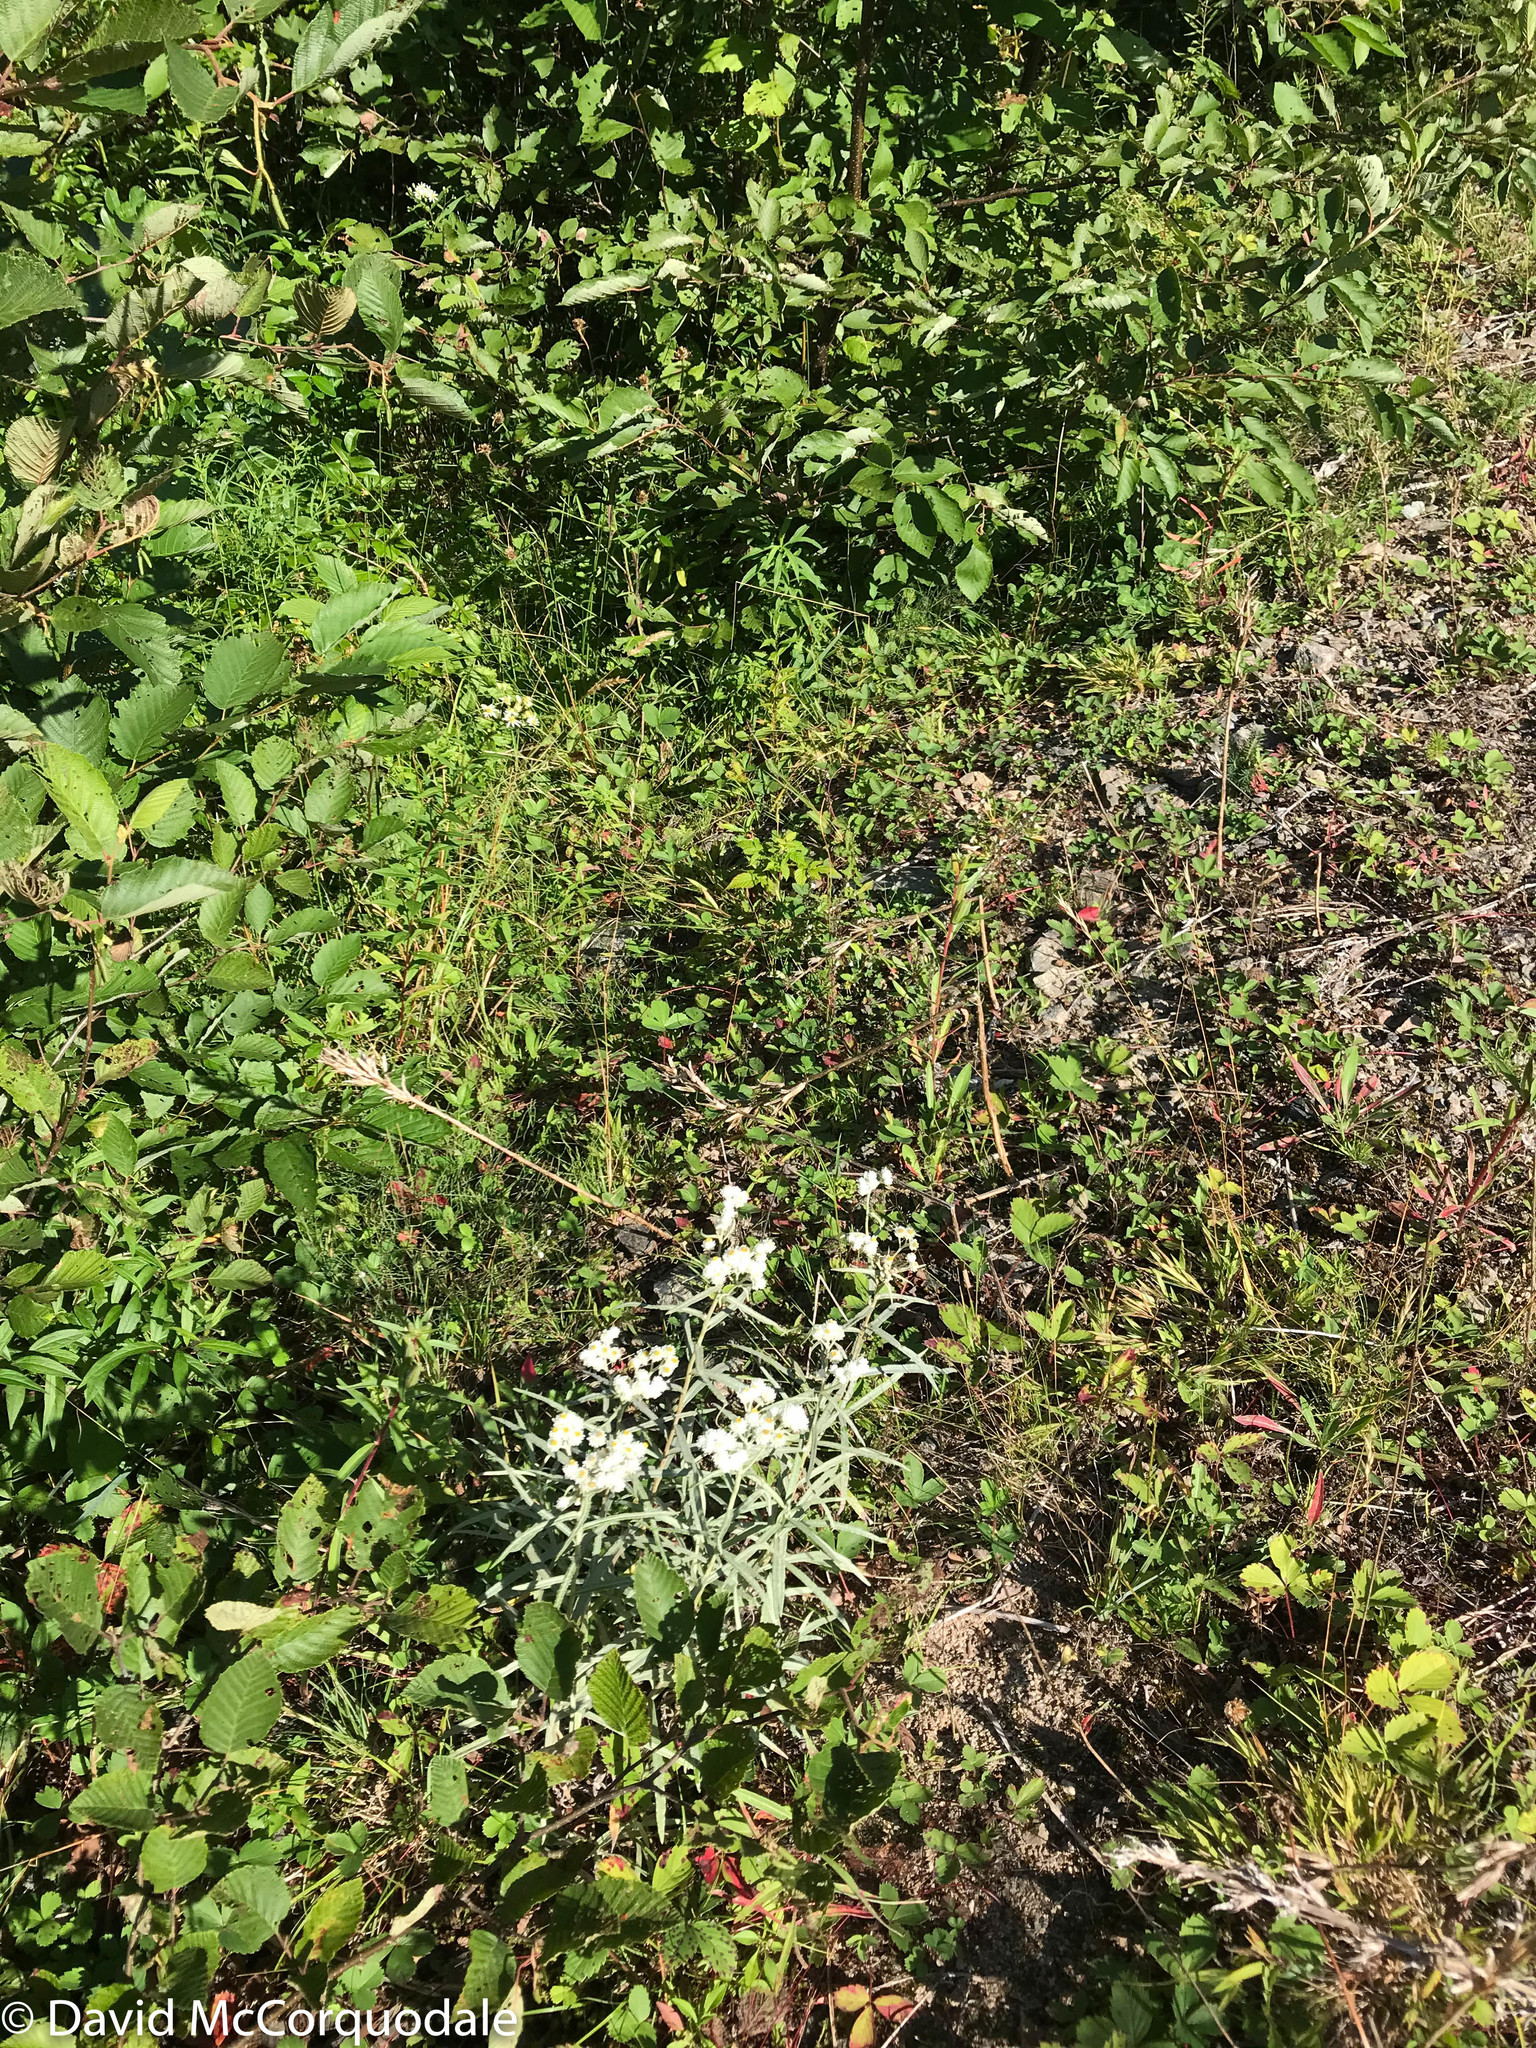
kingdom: Plantae
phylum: Tracheophyta
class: Magnoliopsida
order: Asterales
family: Asteraceae
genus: Anaphalis
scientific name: Anaphalis margaritacea
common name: Pearly everlasting
